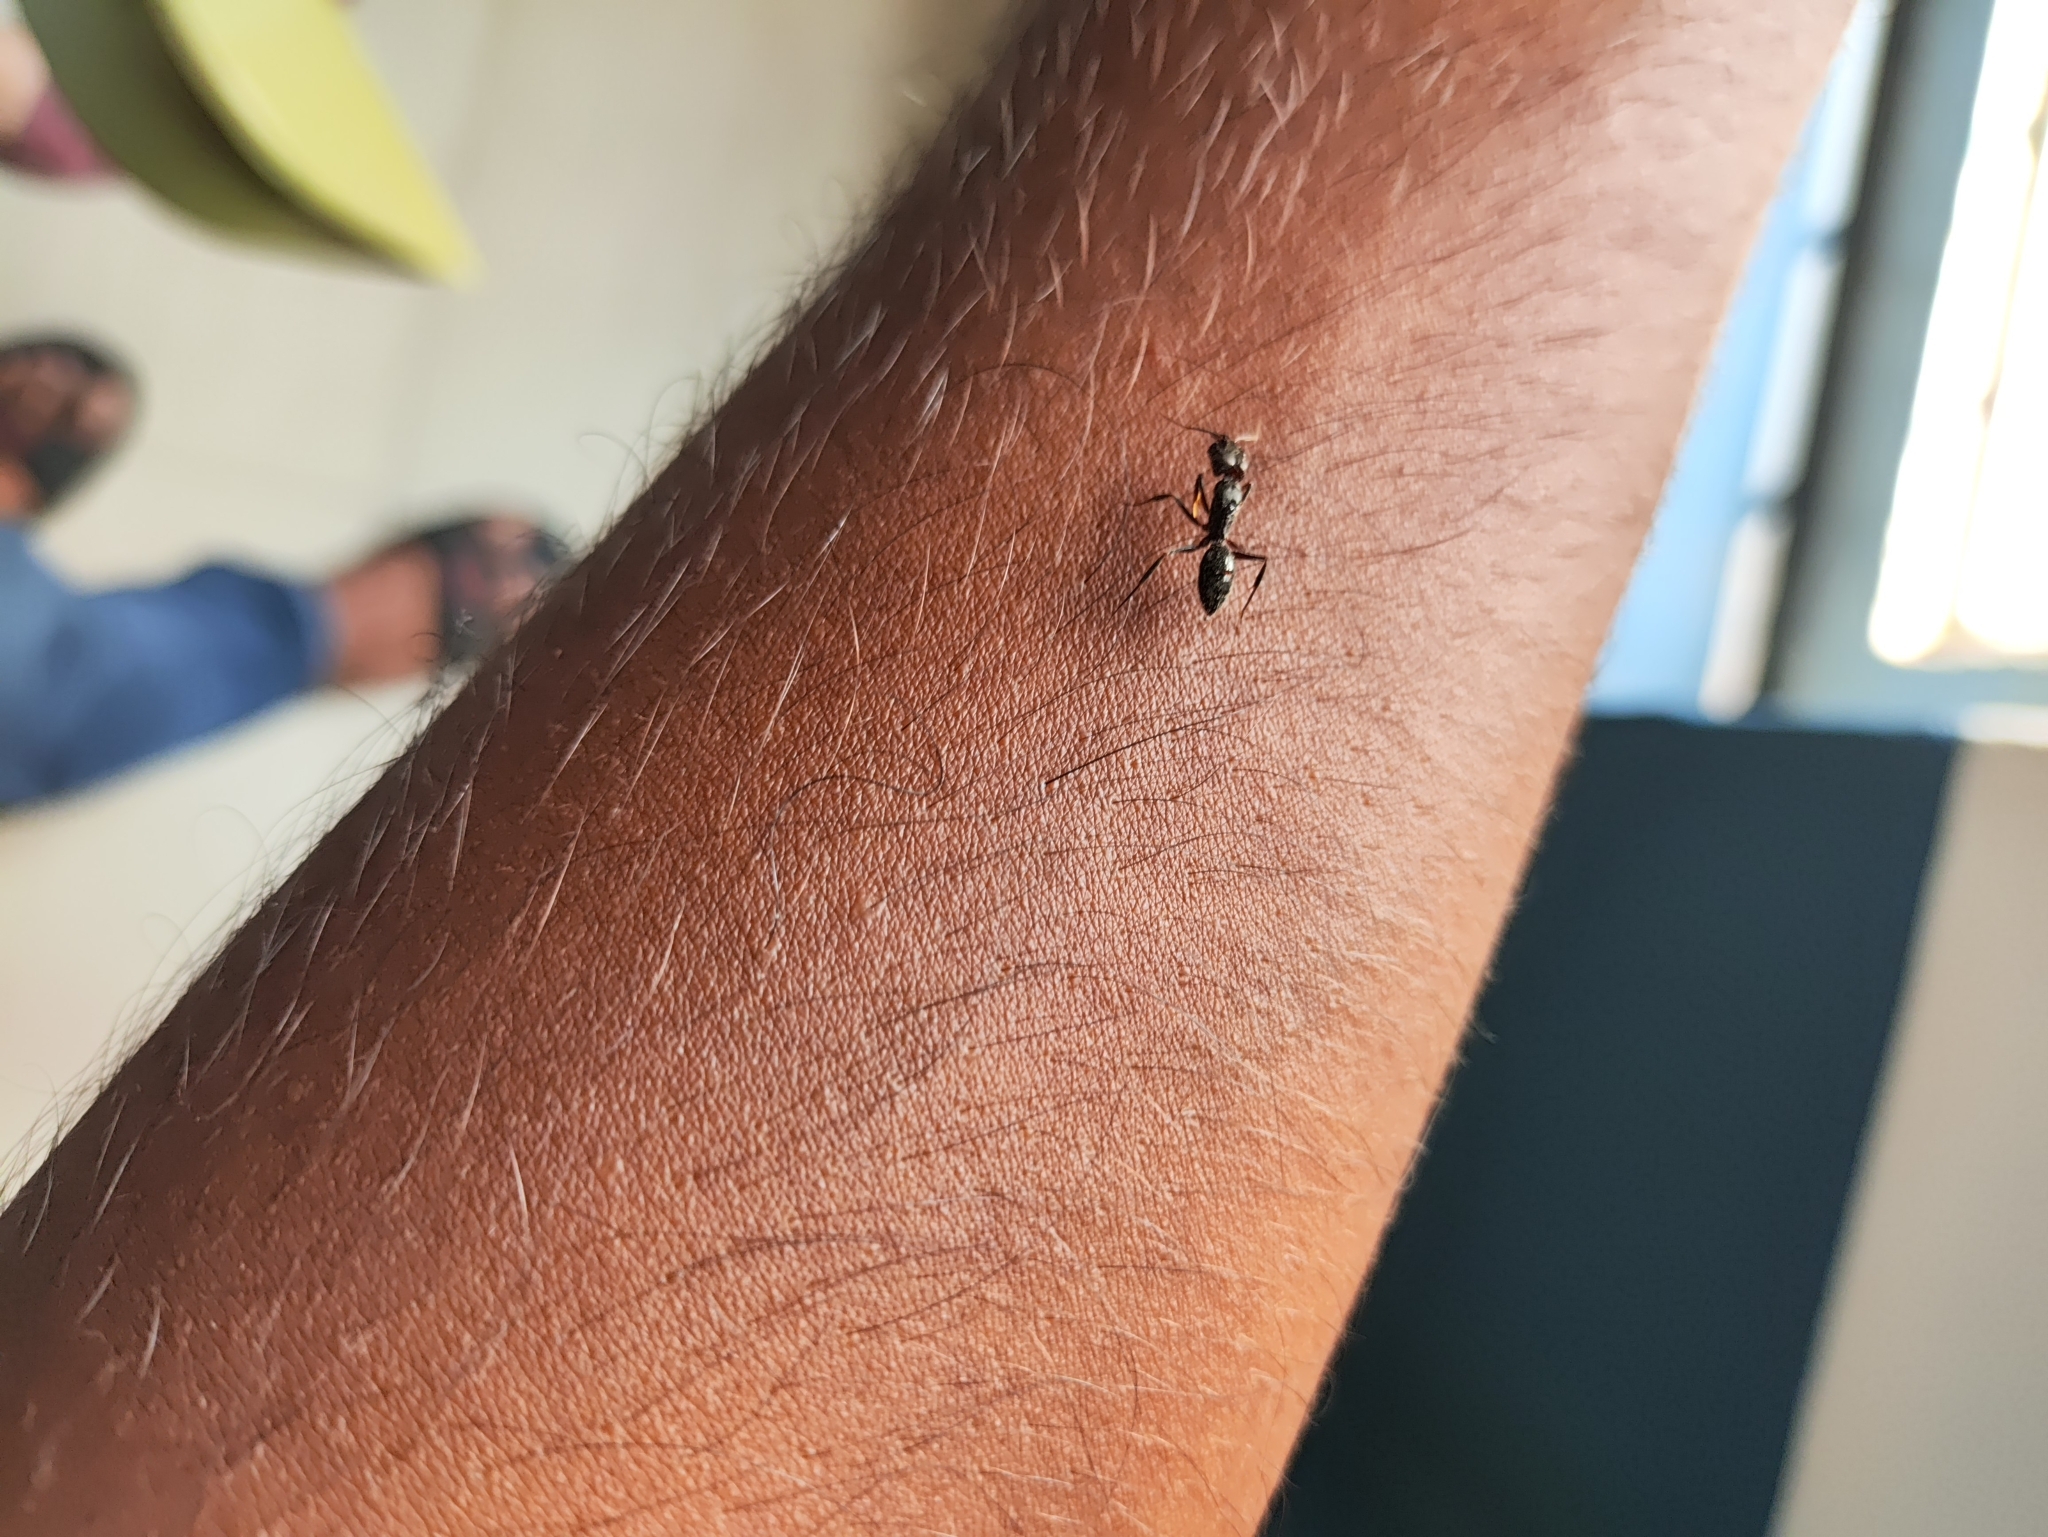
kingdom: Animalia
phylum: Arthropoda
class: Insecta
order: Hymenoptera
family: Formicidae
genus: Odontomachus
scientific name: Odontomachus simillimus
